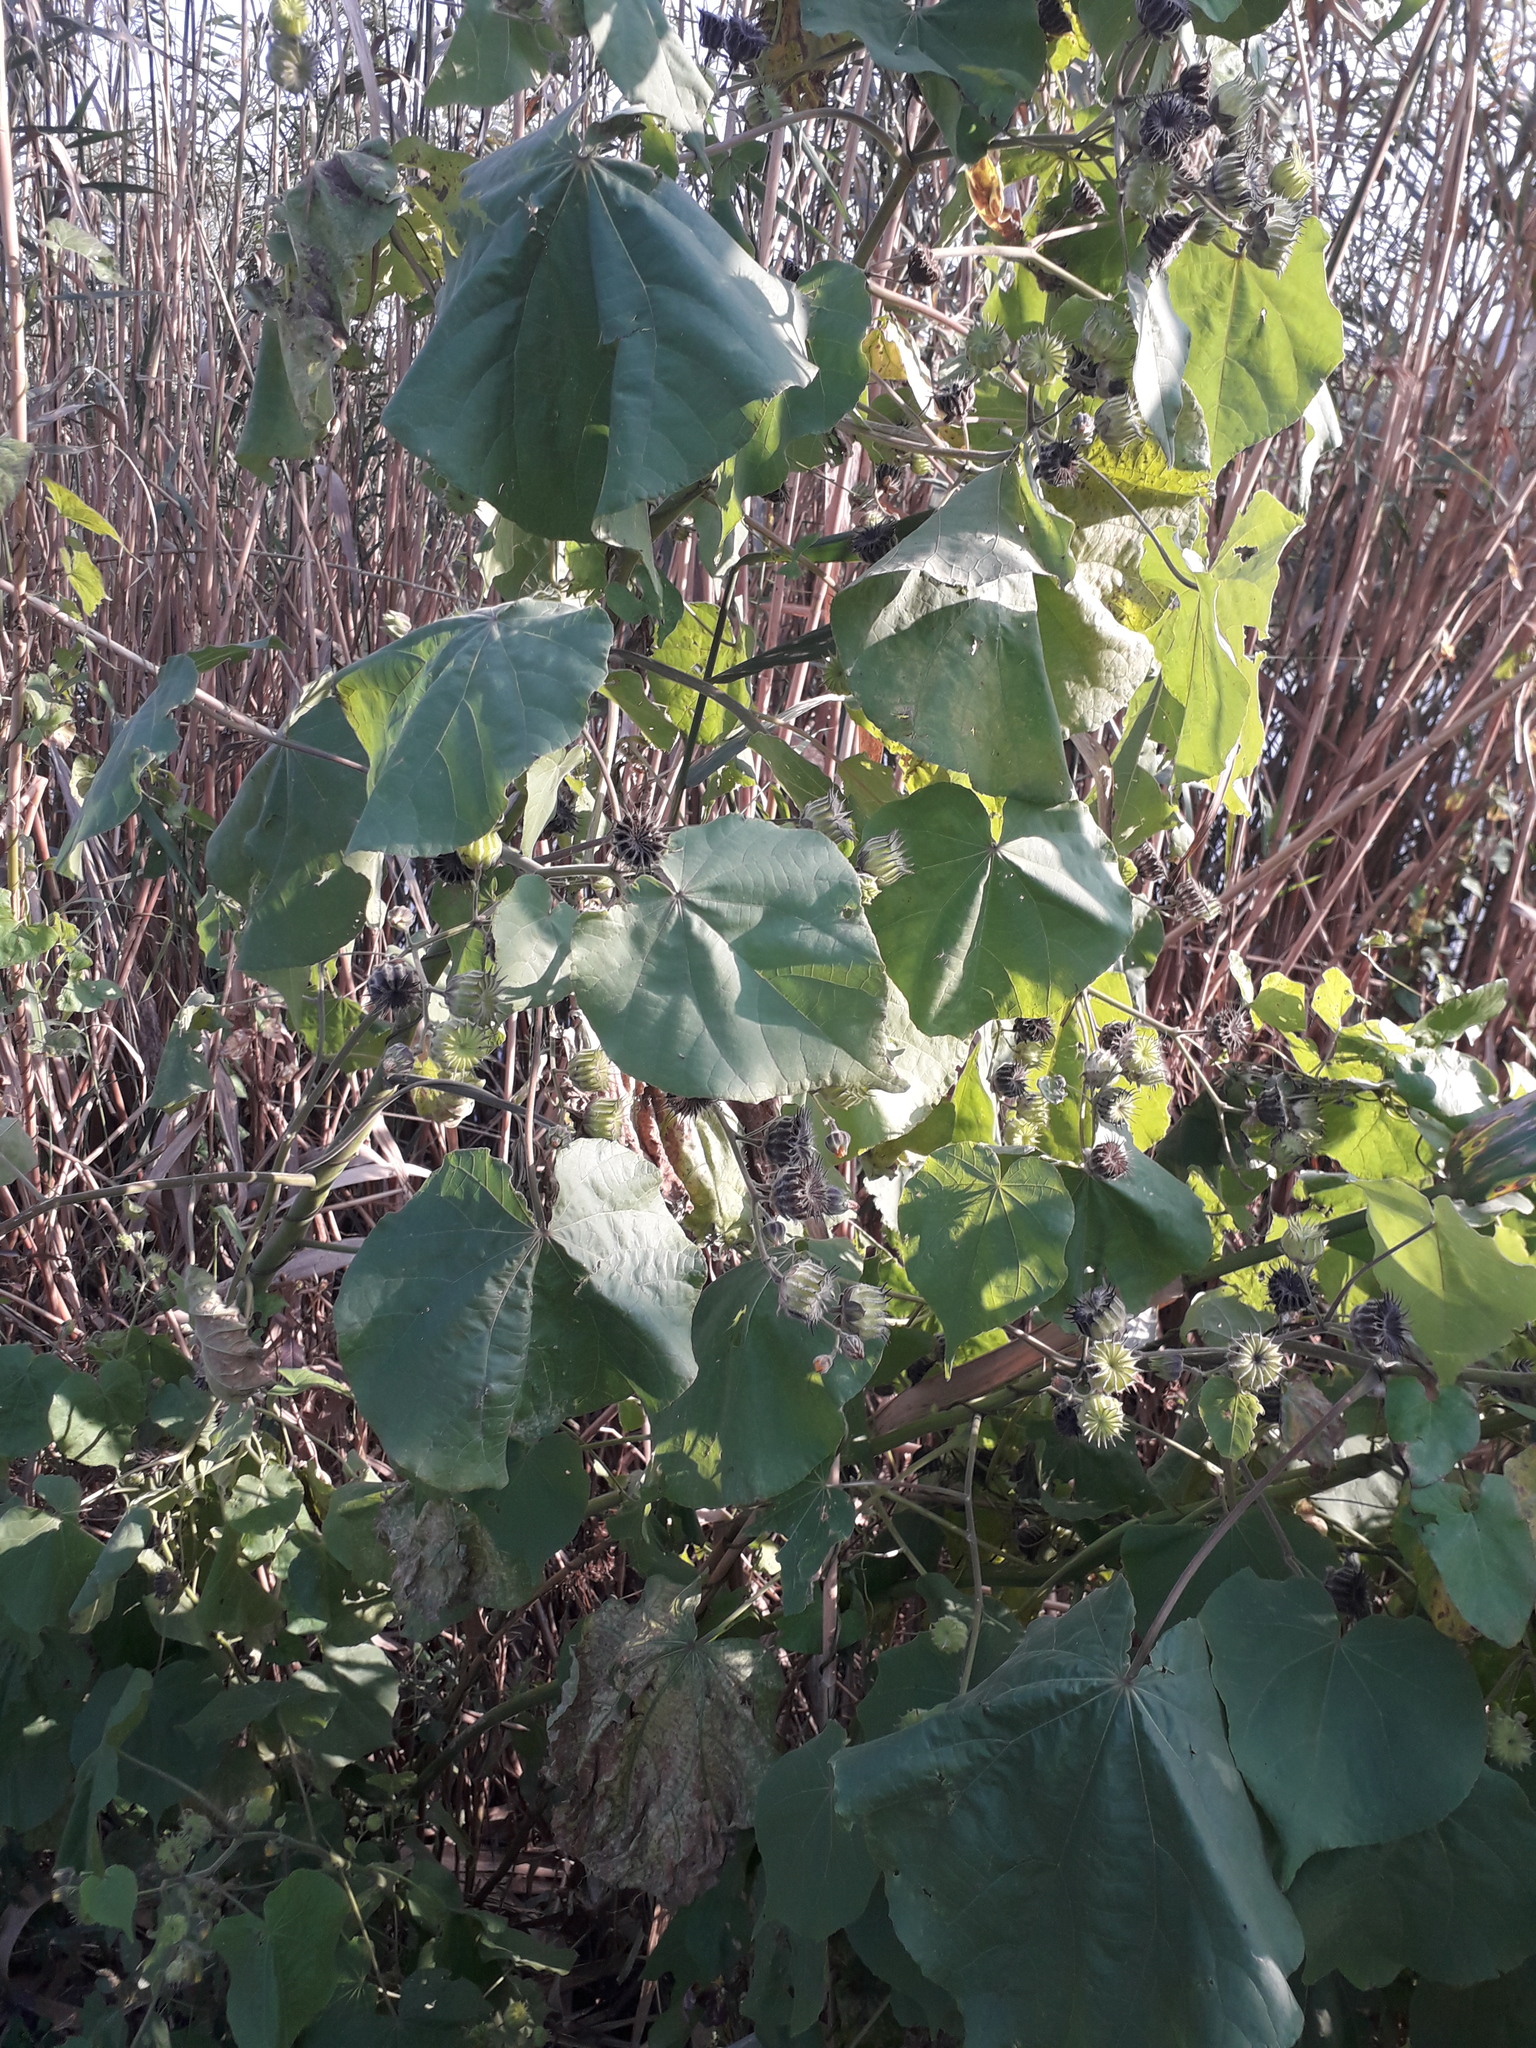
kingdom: Plantae
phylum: Tracheophyta
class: Magnoliopsida
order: Malvales
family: Malvaceae
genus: Abutilon
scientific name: Abutilon theophrasti
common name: Velvetleaf
